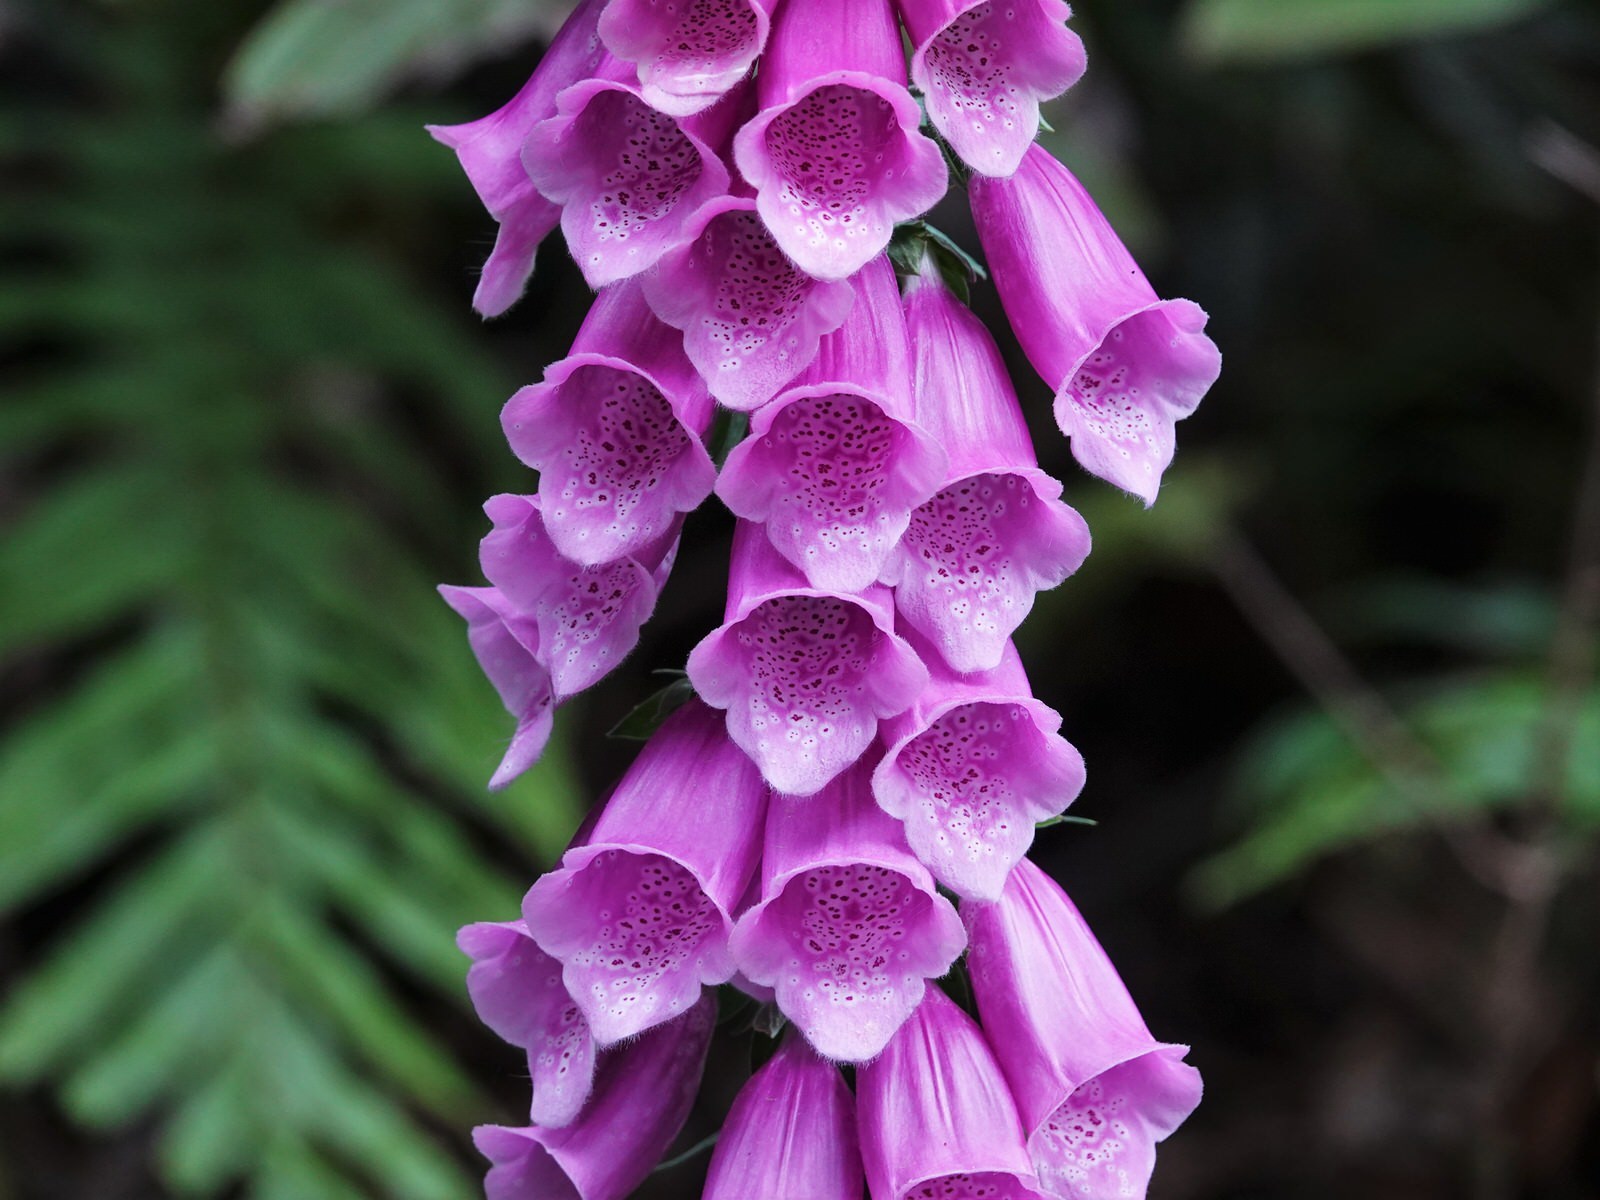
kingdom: Plantae
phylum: Tracheophyta
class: Magnoliopsida
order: Lamiales
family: Plantaginaceae
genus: Digitalis
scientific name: Digitalis purpurea
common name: Foxglove
